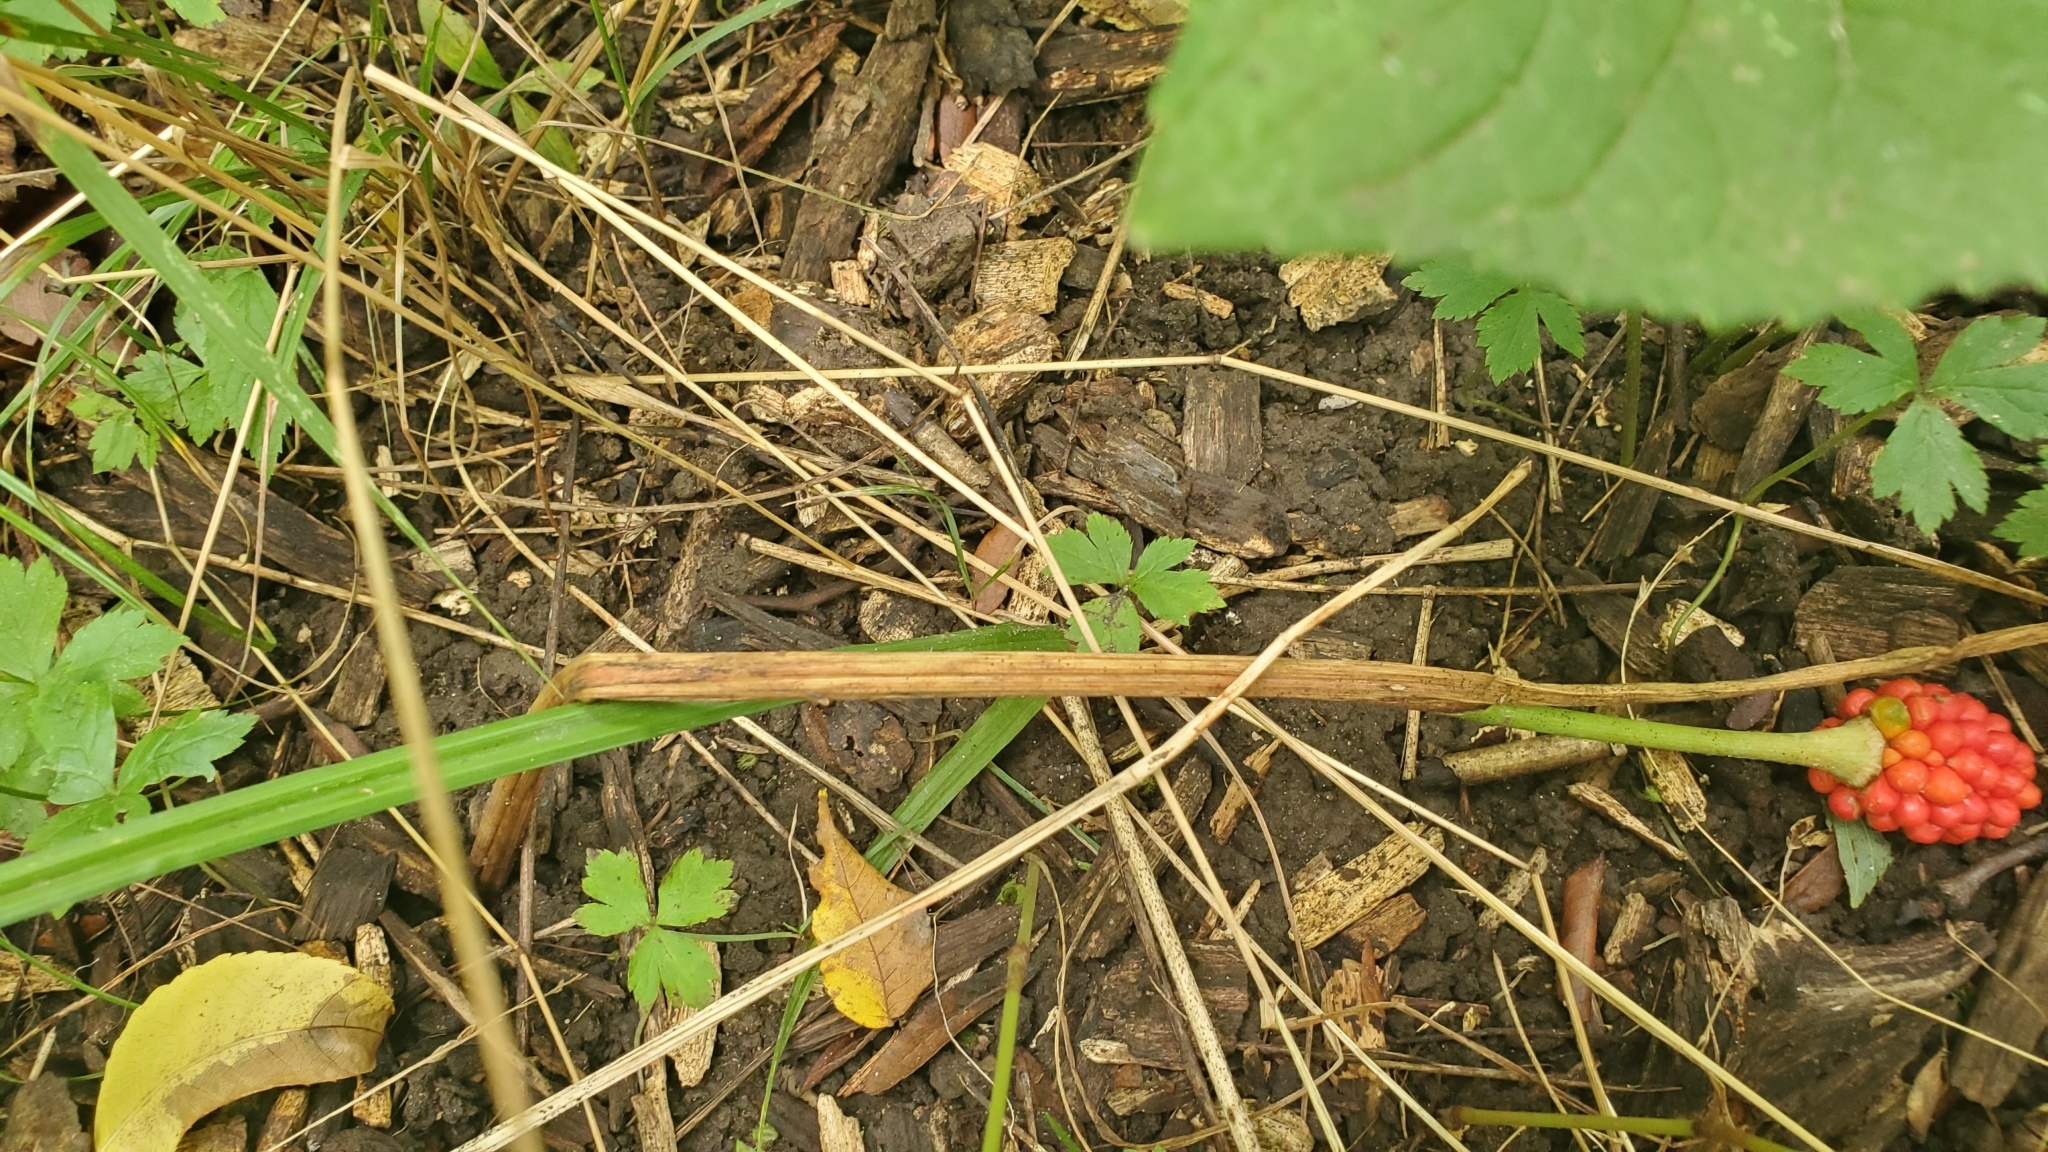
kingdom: Plantae
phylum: Tracheophyta
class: Liliopsida
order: Alismatales
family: Araceae
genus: Arisaema
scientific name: Arisaema triphyllum
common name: Jack-in-the-pulpit
